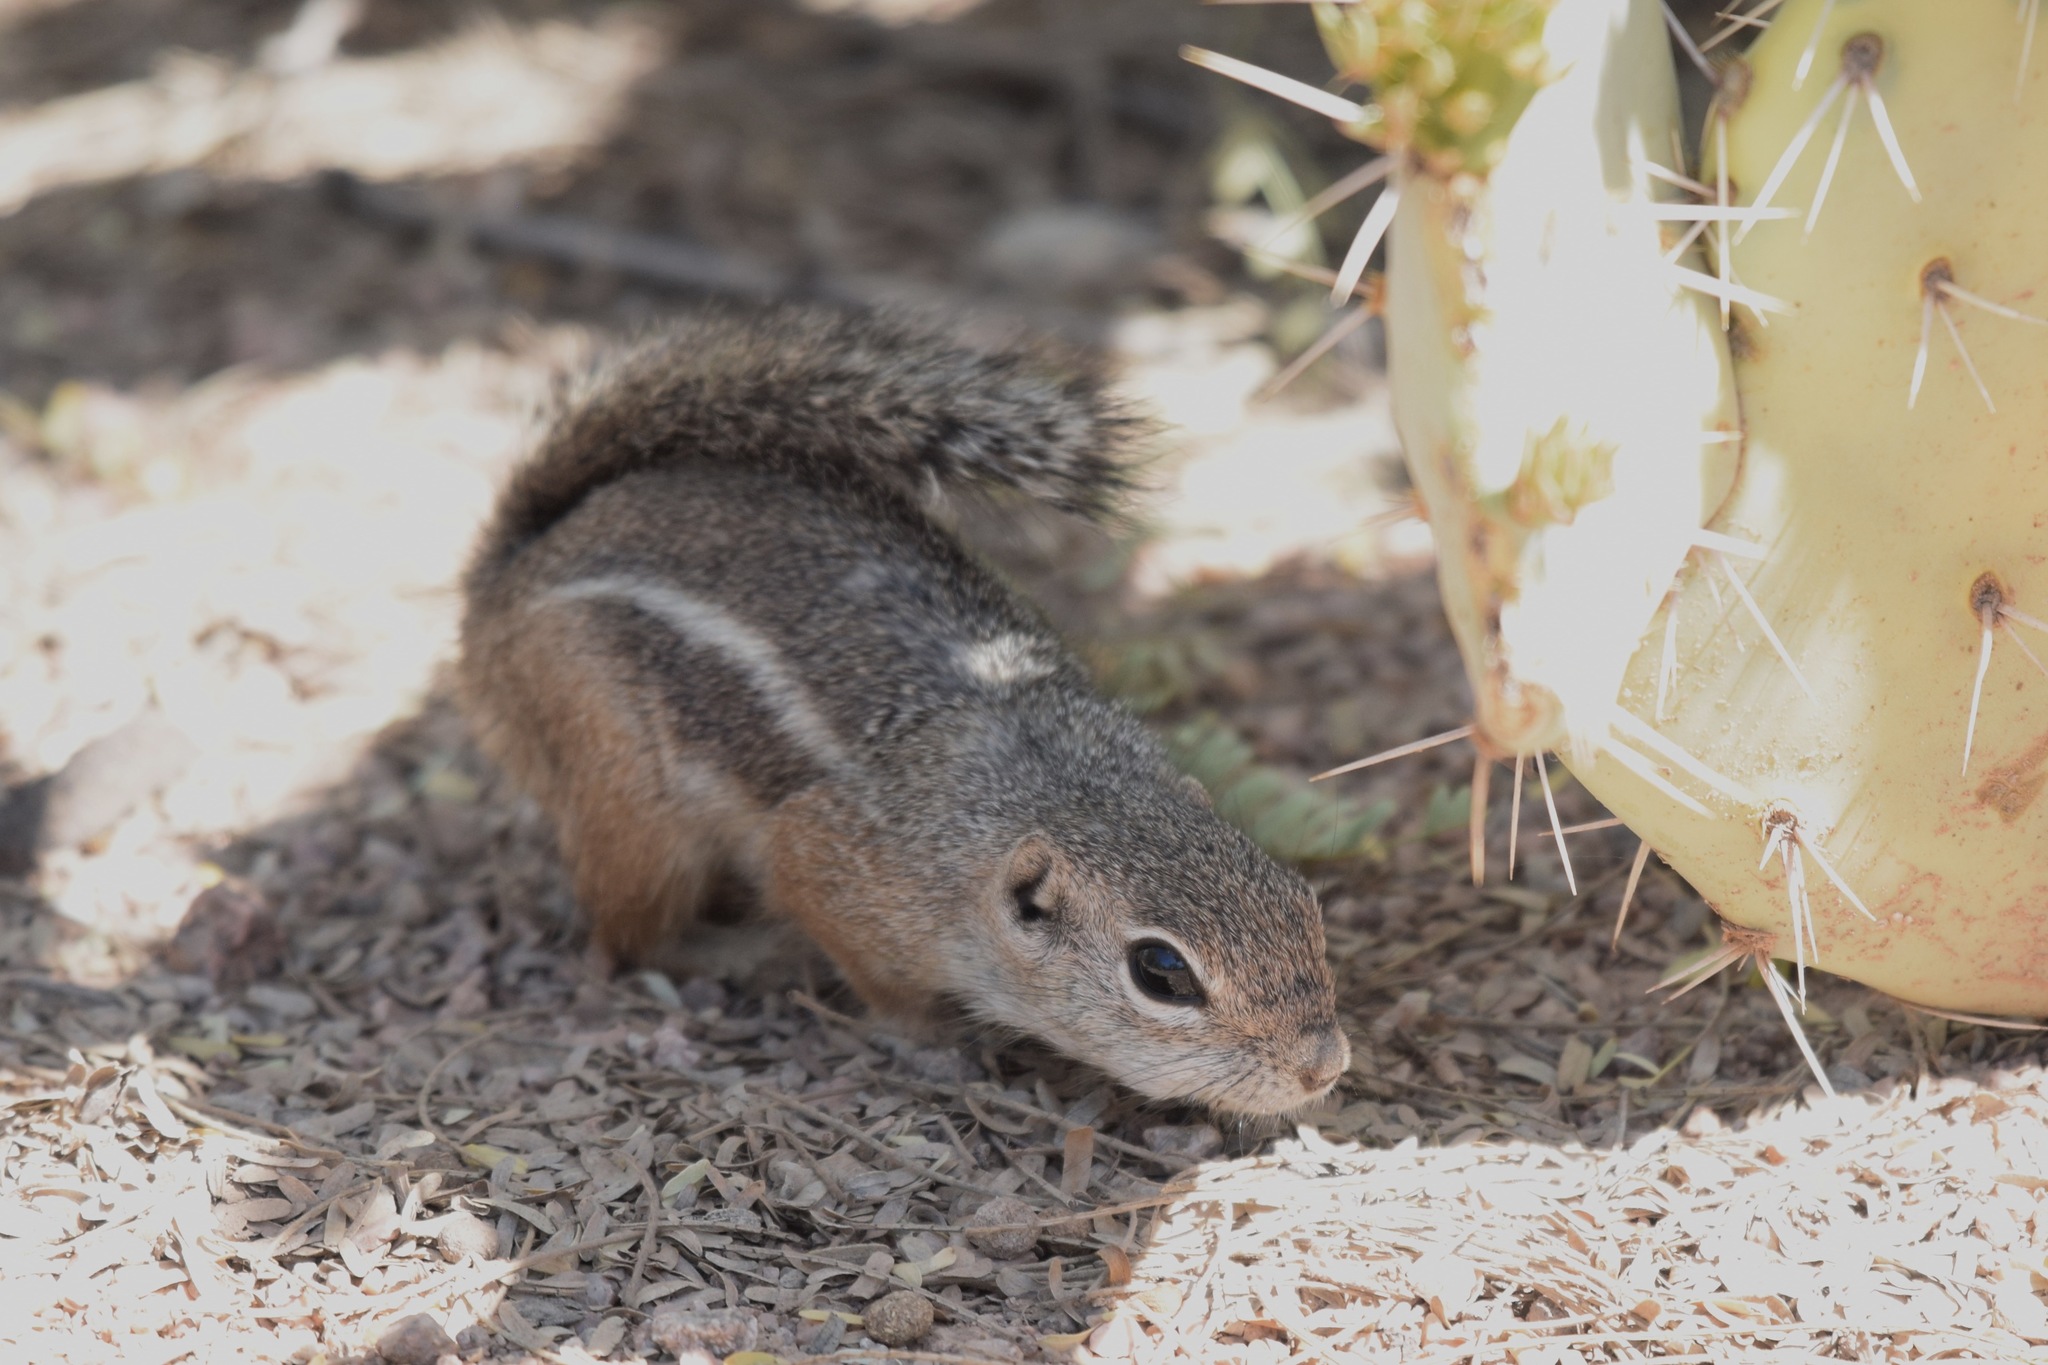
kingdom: Animalia
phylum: Chordata
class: Mammalia
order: Rodentia
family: Sciuridae
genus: Ammospermophilus
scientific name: Ammospermophilus harrisii
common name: Harris's antelope squirrel
